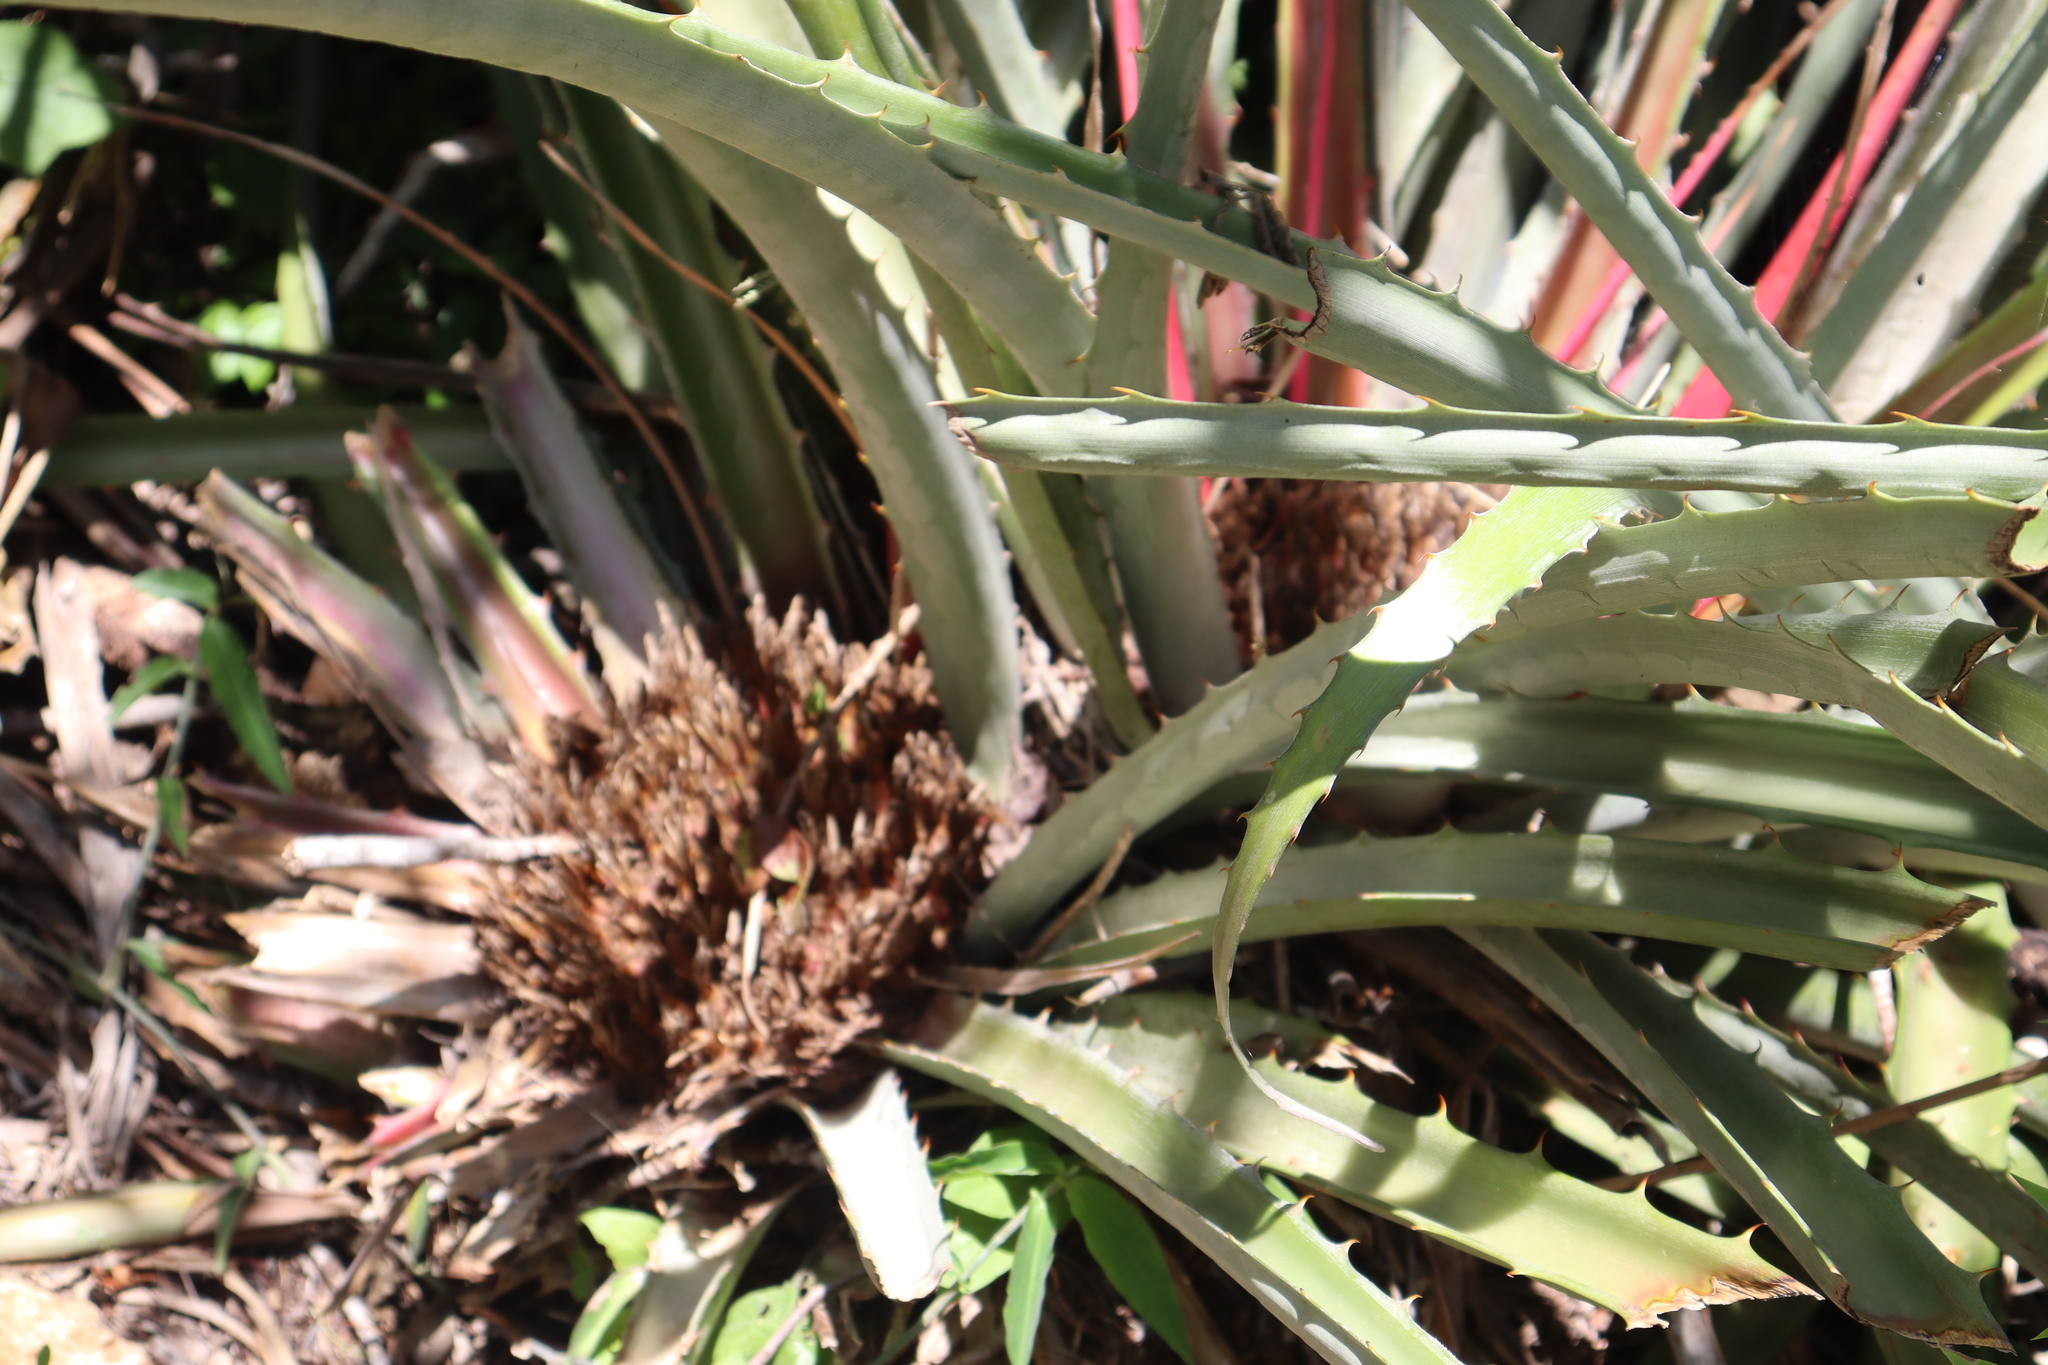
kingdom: Plantae
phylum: Tracheophyta
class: Liliopsida
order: Poales
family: Bromeliaceae
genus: Bromelia
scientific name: Bromelia karatas
